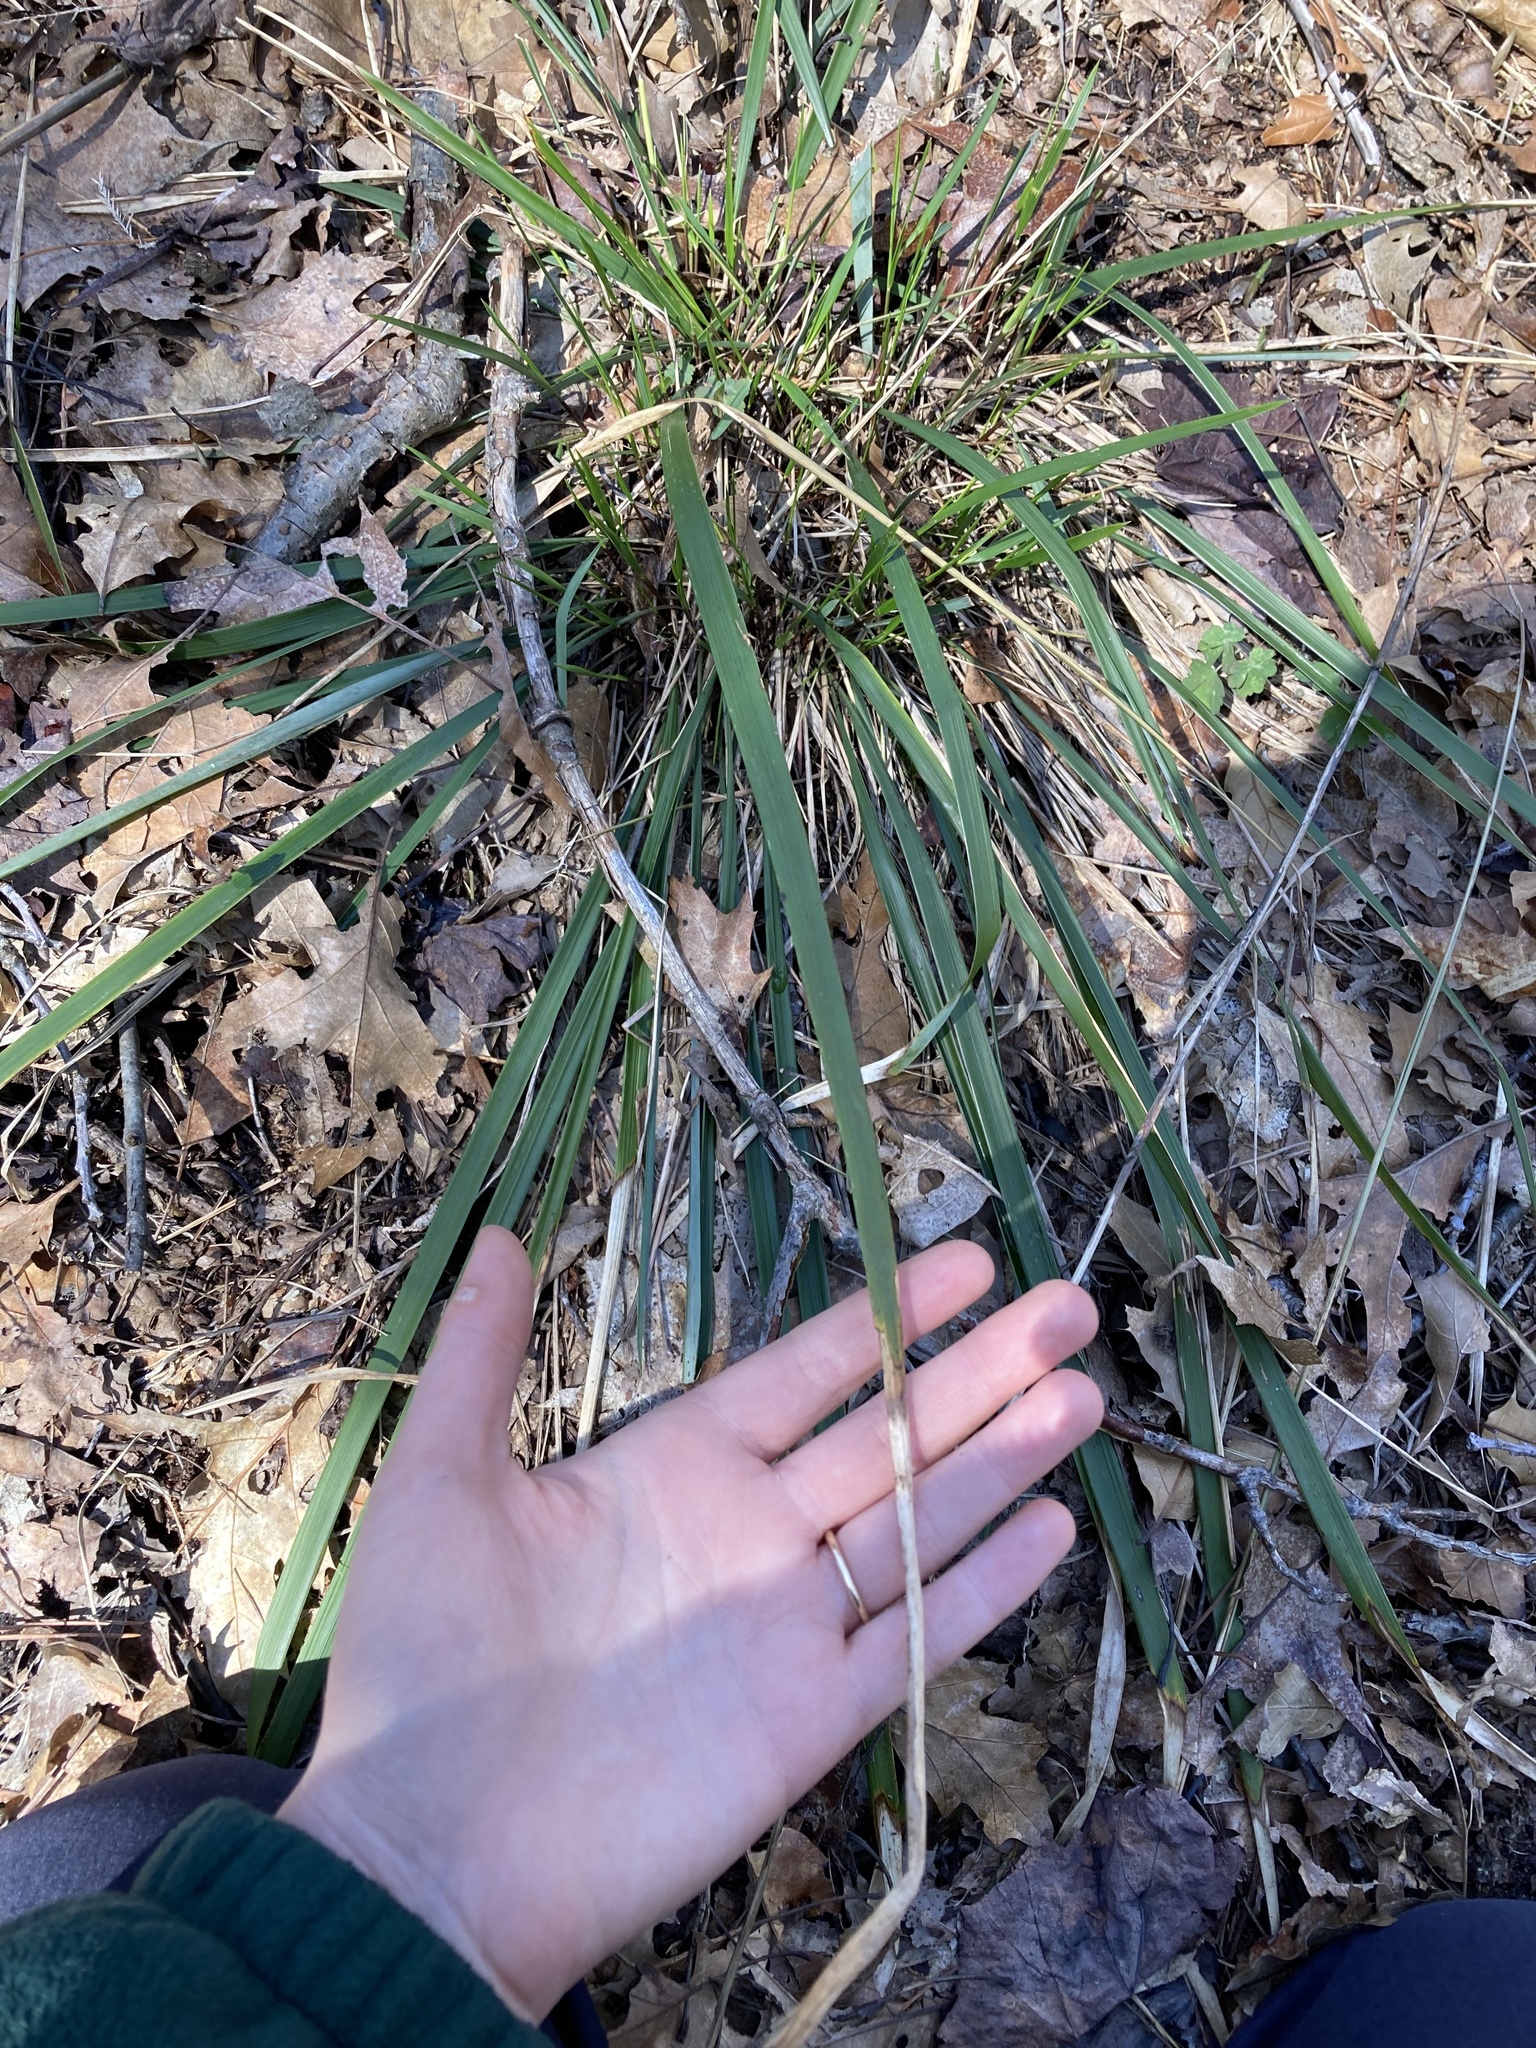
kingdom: Plantae
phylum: Tracheophyta
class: Liliopsida
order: Poales
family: Poaceae
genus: Oryzopsis
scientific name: Oryzopsis asperifolia
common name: Rough-leaved mountain rice
